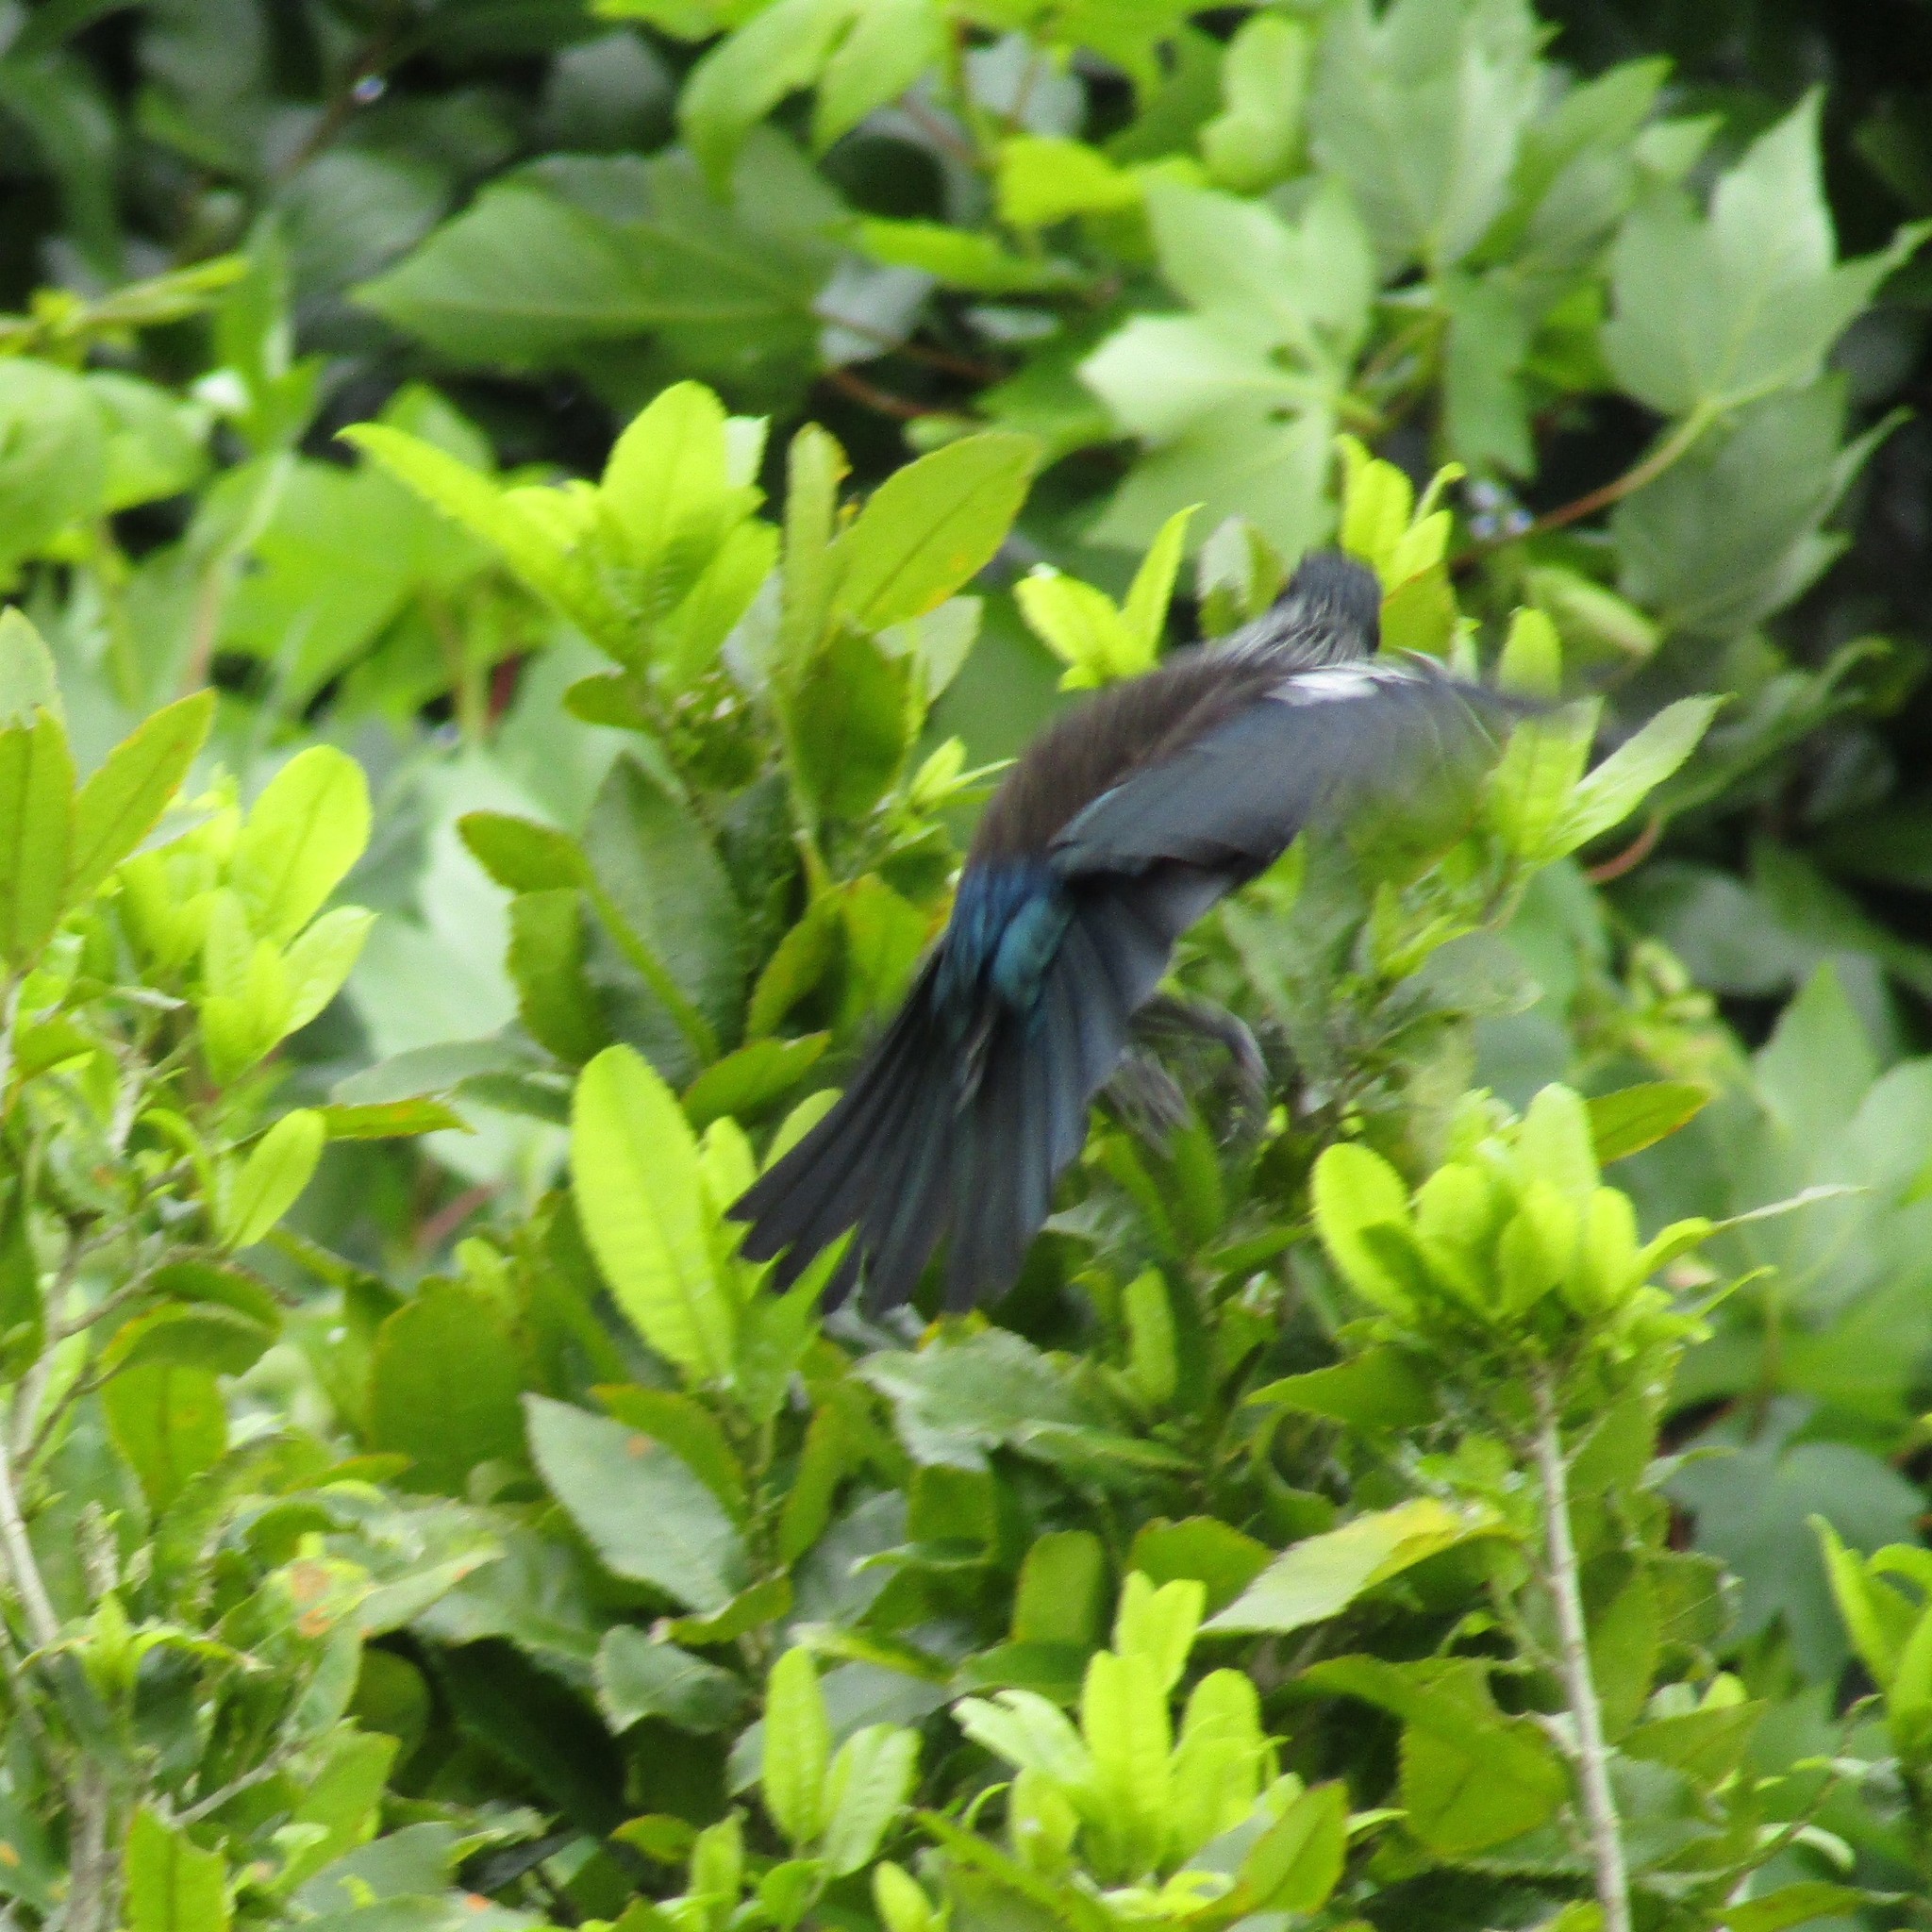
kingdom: Animalia
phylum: Chordata
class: Aves
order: Passeriformes
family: Meliphagidae
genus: Prosthemadera
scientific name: Prosthemadera novaeseelandiae
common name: Tui
